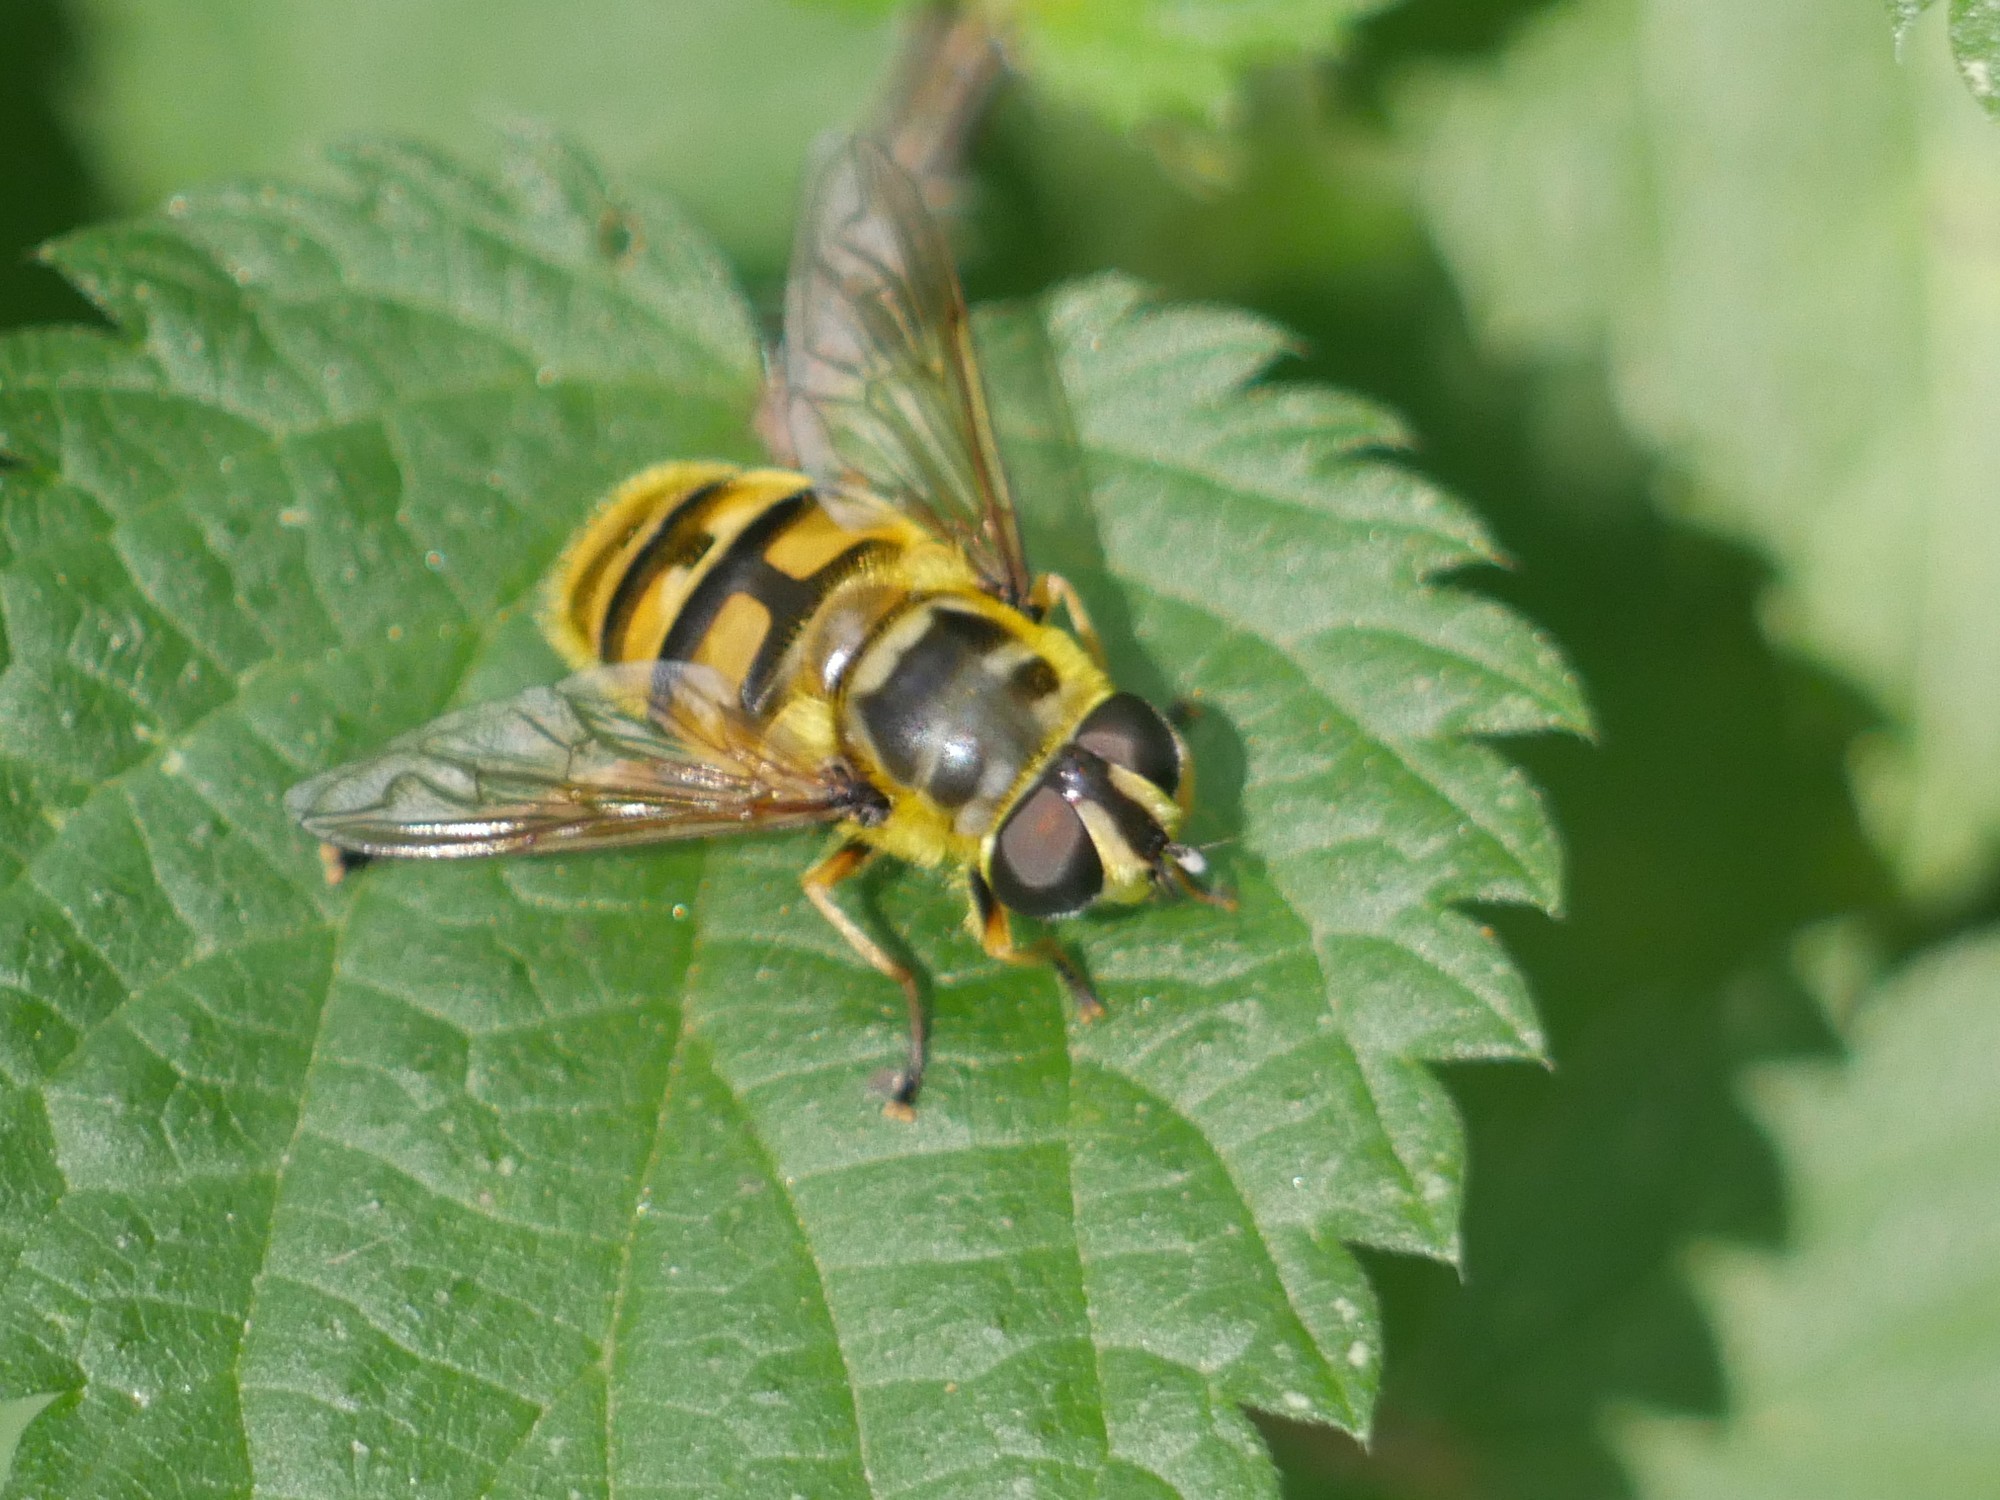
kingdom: Animalia
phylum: Arthropoda
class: Insecta
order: Diptera
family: Syrphidae
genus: Myathropa
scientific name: Myathropa florea
